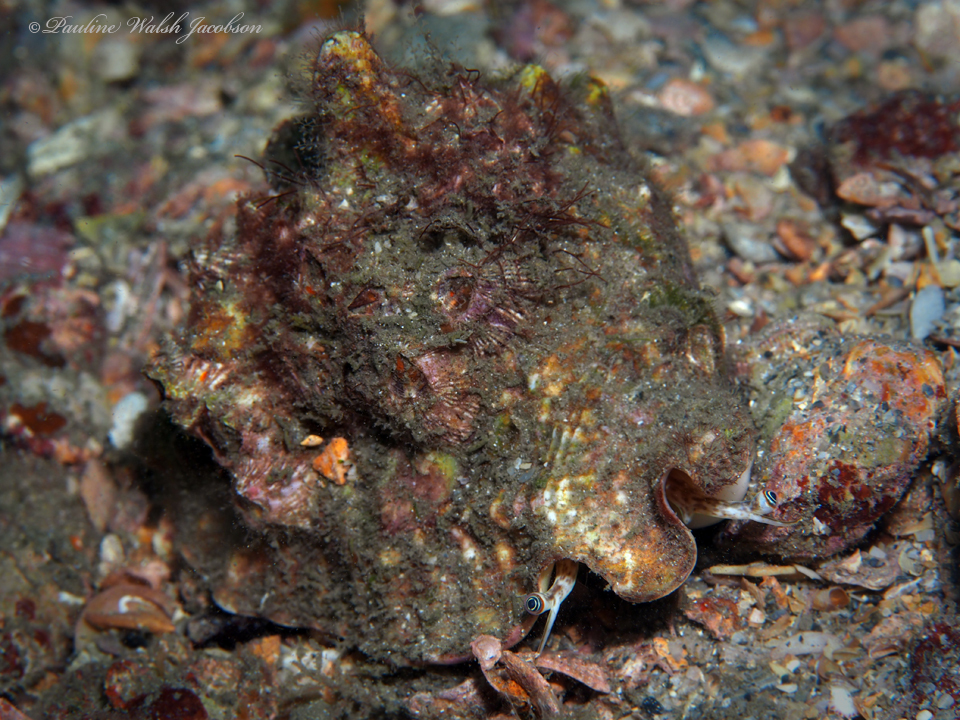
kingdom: Animalia
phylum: Mollusca
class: Gastropoda
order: Littorinimorpha
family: Strombidae
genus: Lobatus
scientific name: Lobatus raninus
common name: Hawk-wing conch
